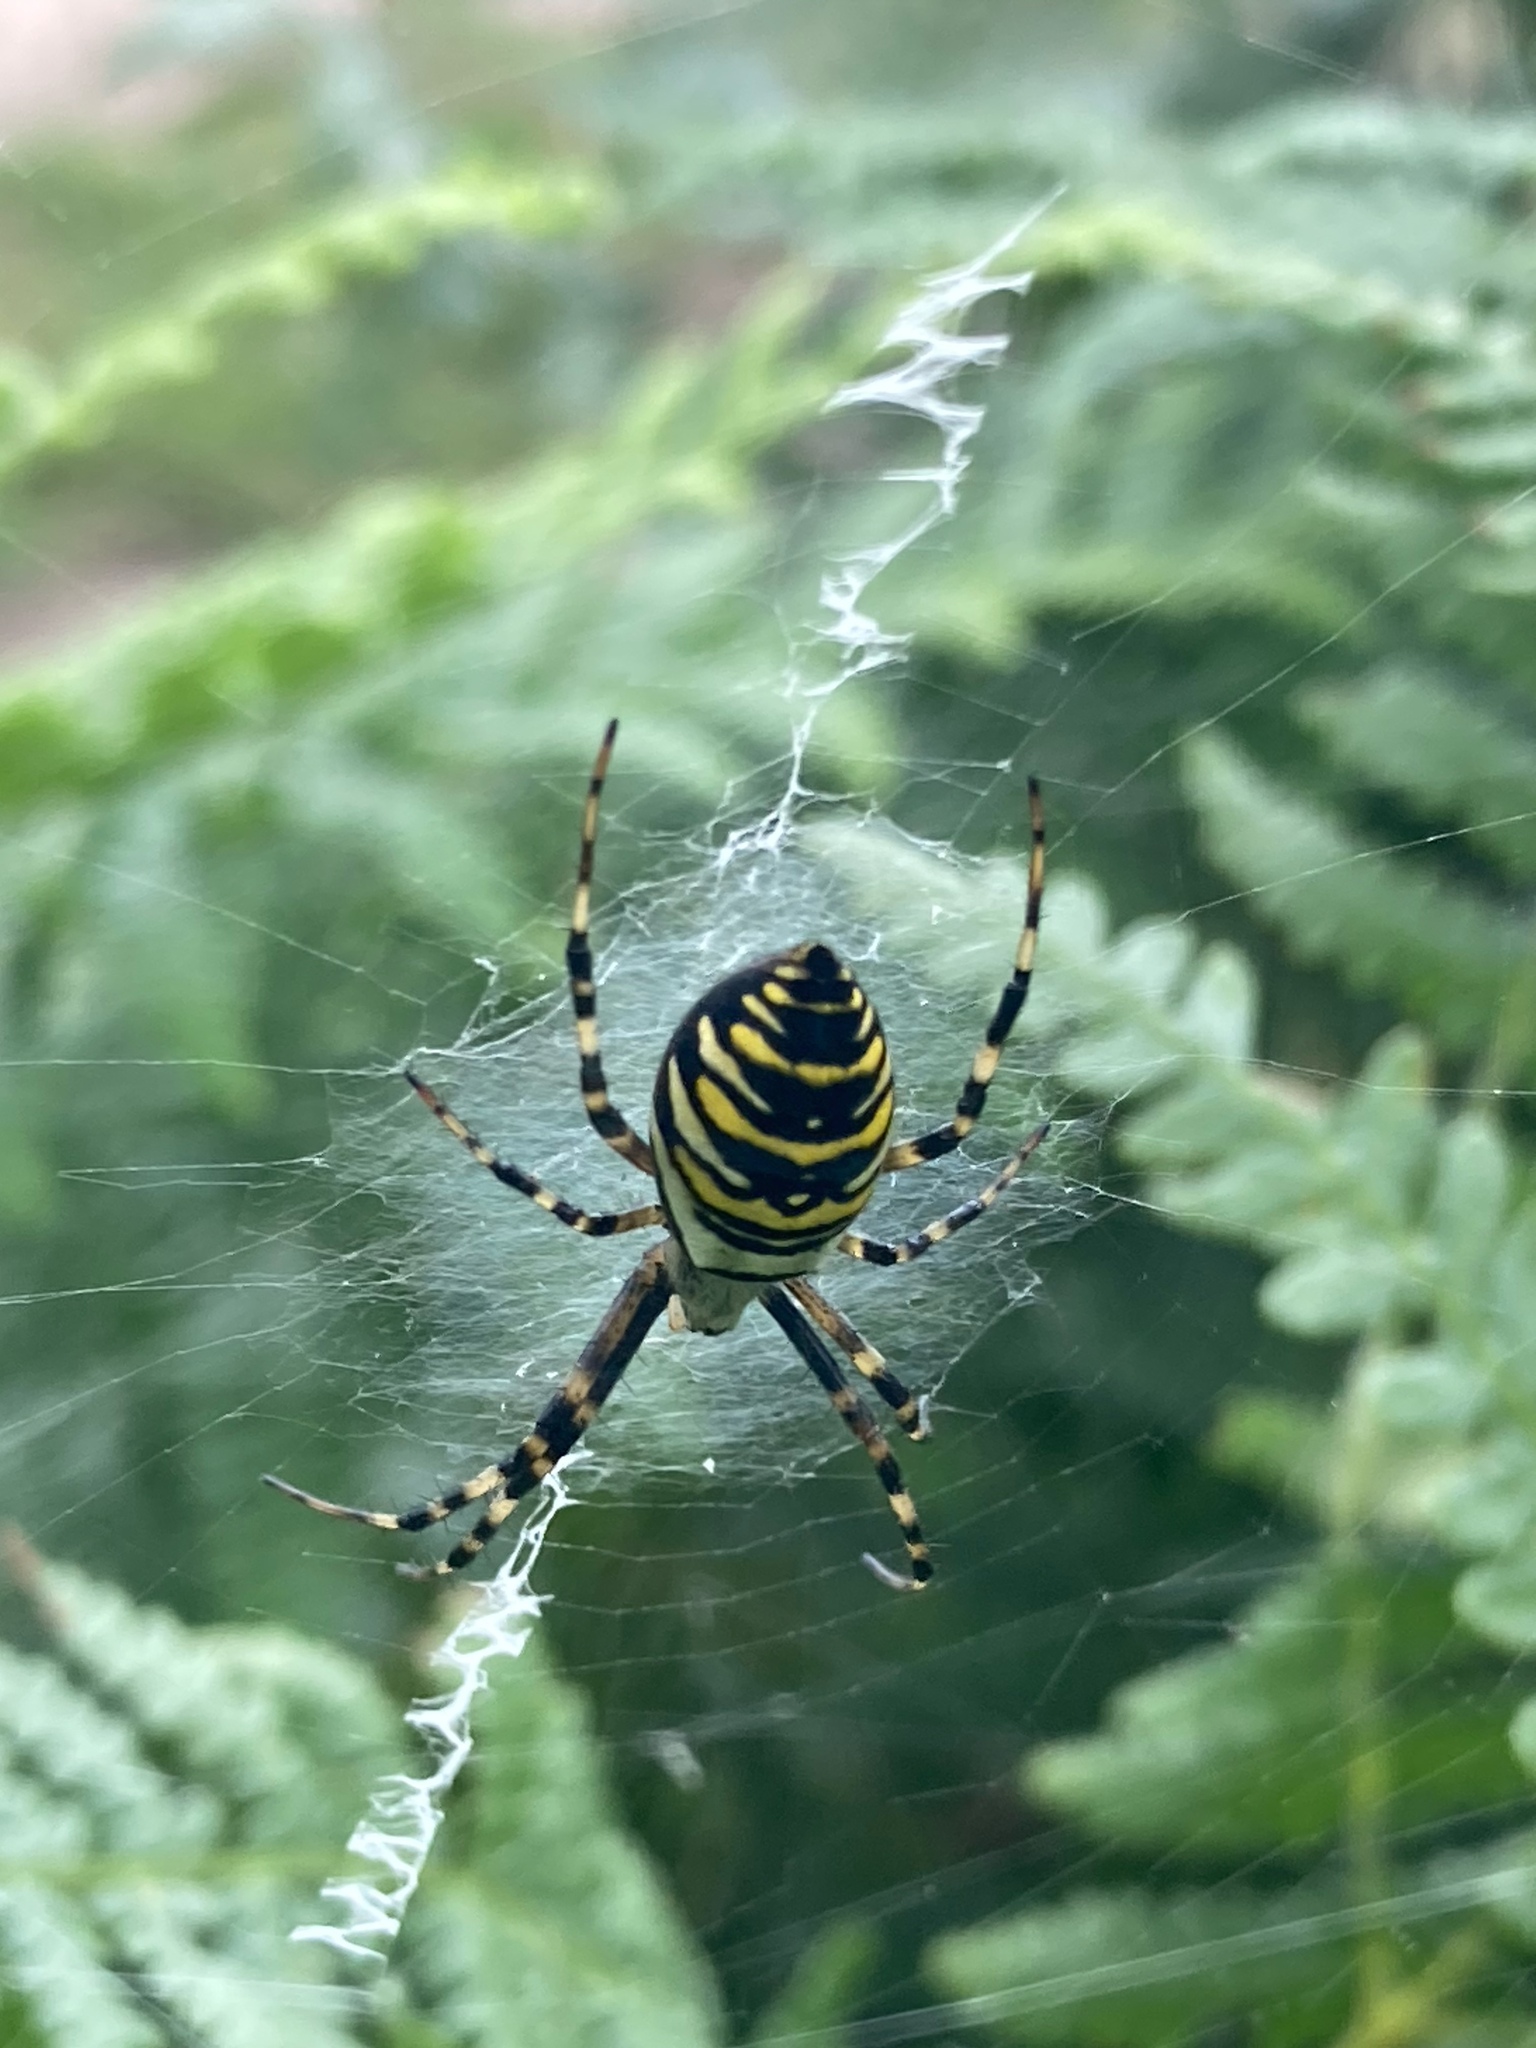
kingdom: Animalia
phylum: Arthropoda
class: Arachnida
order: Araneae
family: Araneidae
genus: Argiope
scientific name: Argiope bruennichi
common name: Wasp spider
